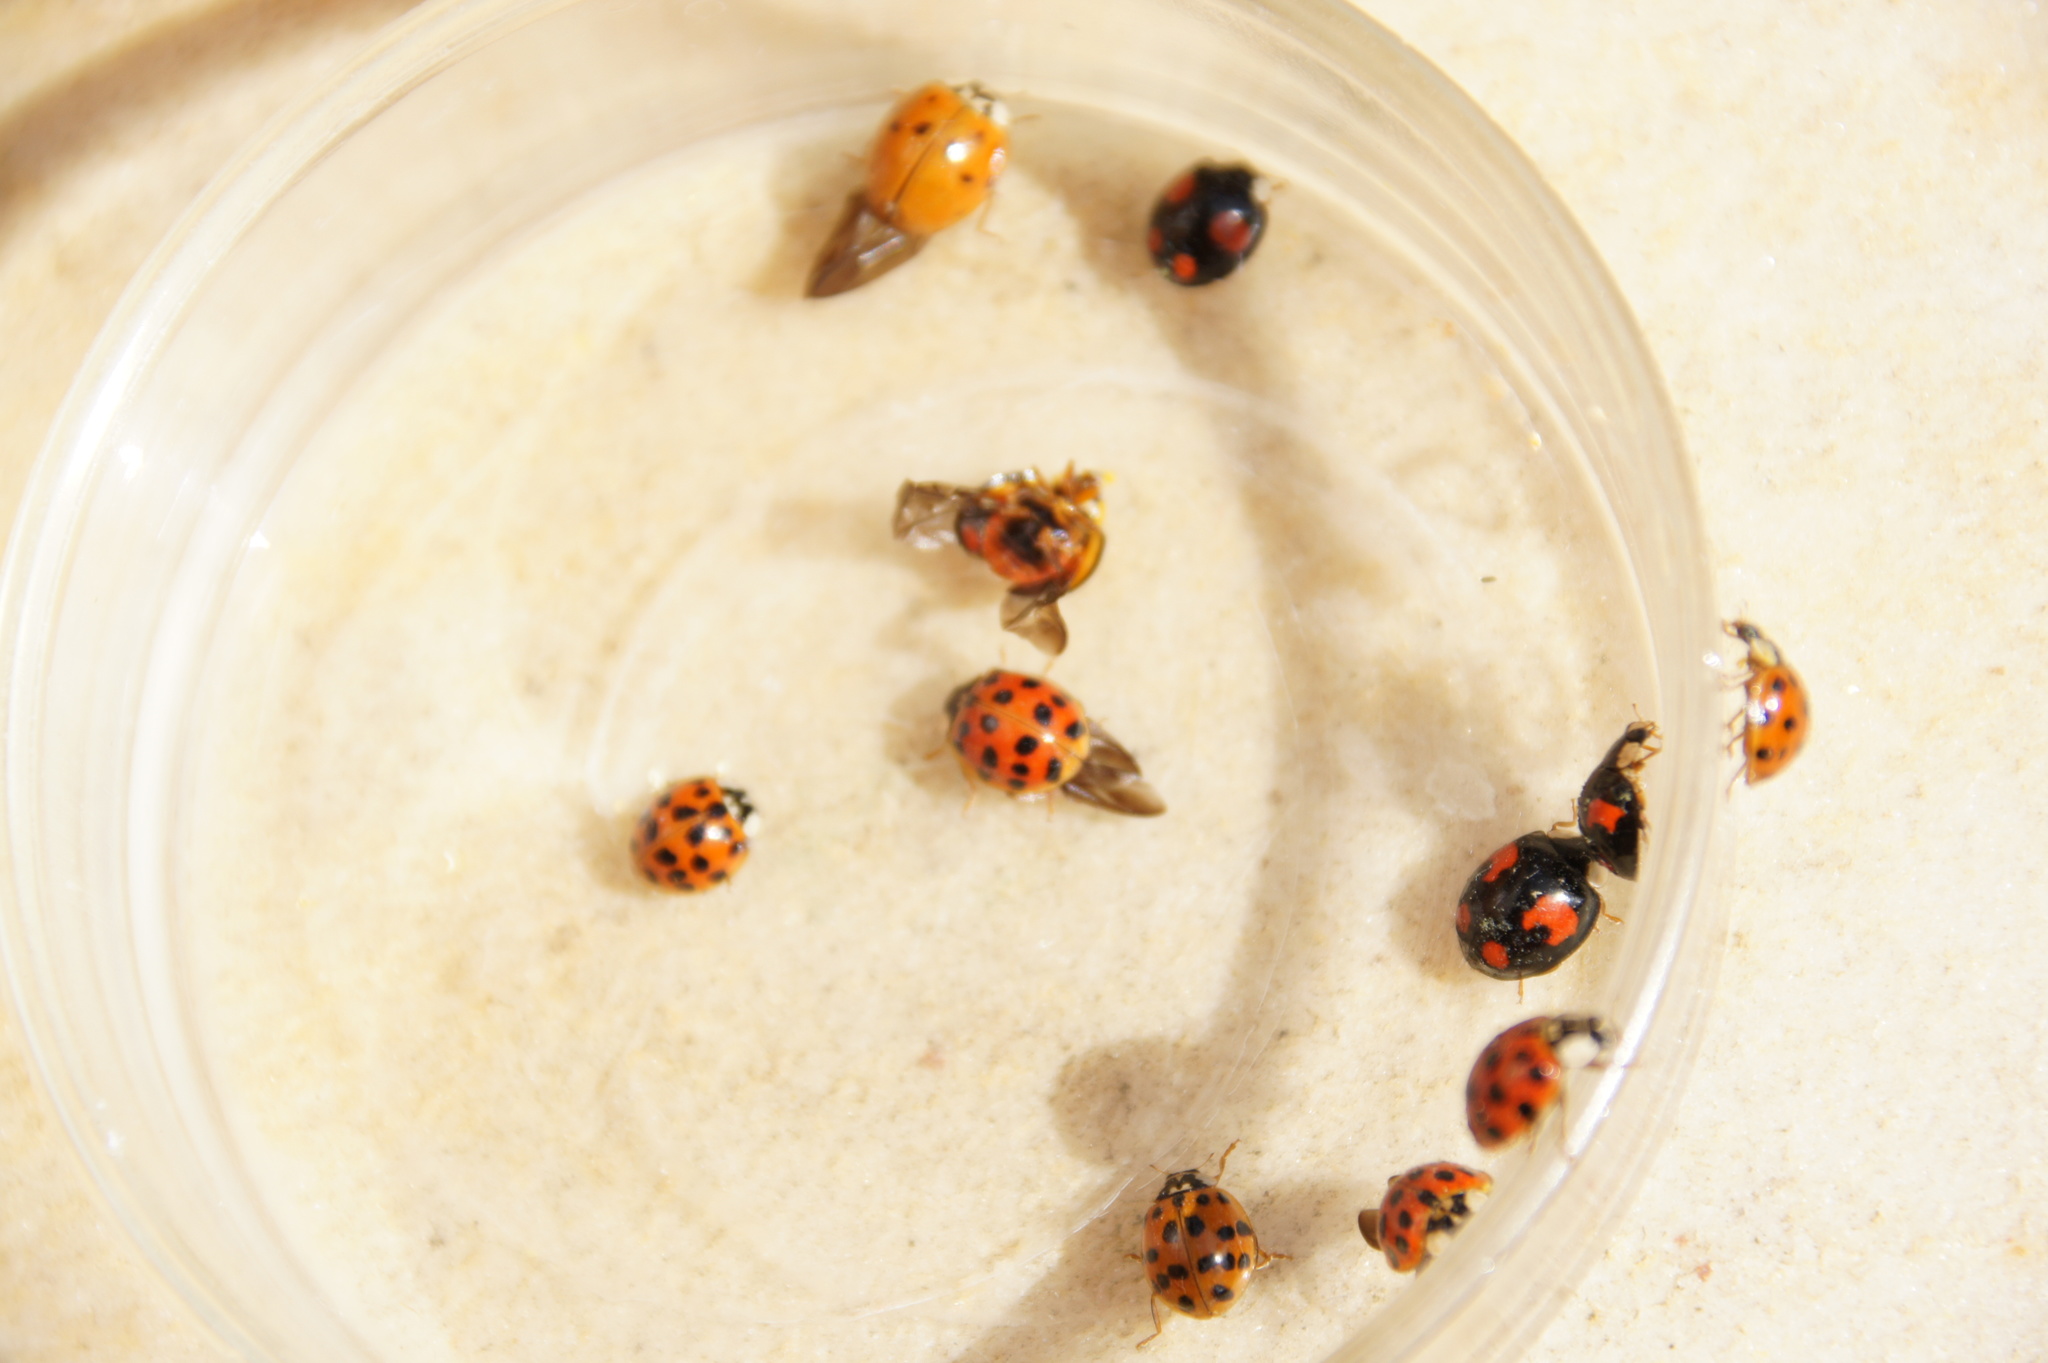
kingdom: Animalia
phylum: Arthropoda
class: Insecta
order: Coleoptera
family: Coccinellidae
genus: Harmonia
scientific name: Harmonia axyridis
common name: Harlequin ladybird
